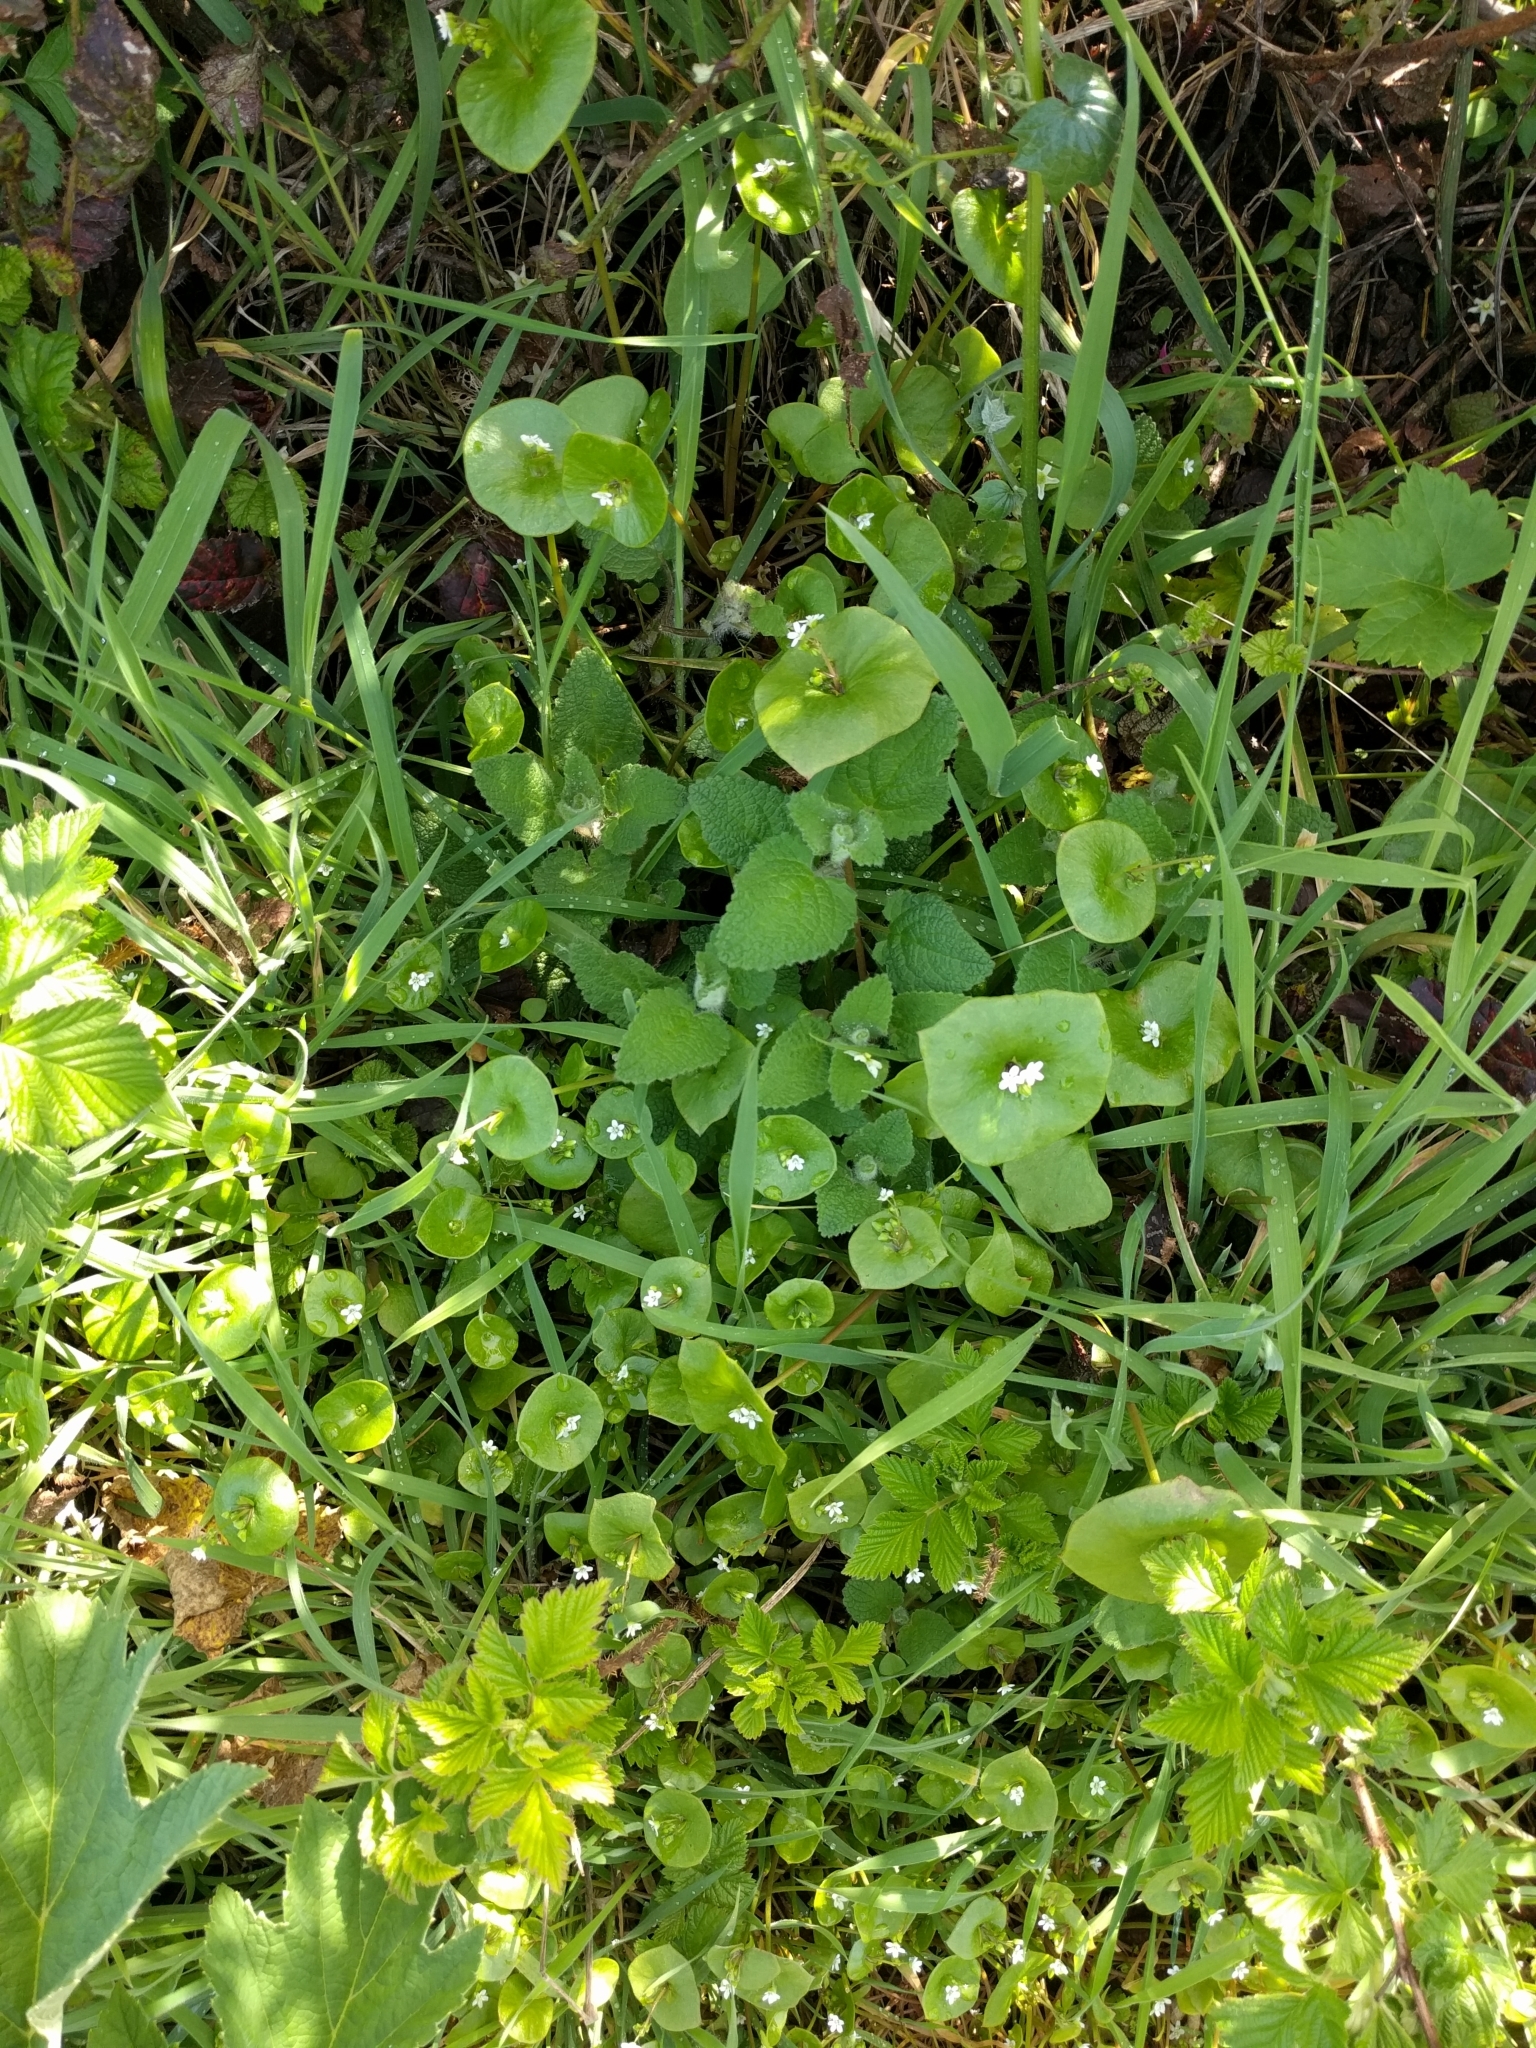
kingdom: Plantae
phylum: Tracheophyta
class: Magnoliopsida
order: Caryophyllales
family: Montiaceae
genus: Claytonia
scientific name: Claytonia perfoliata
